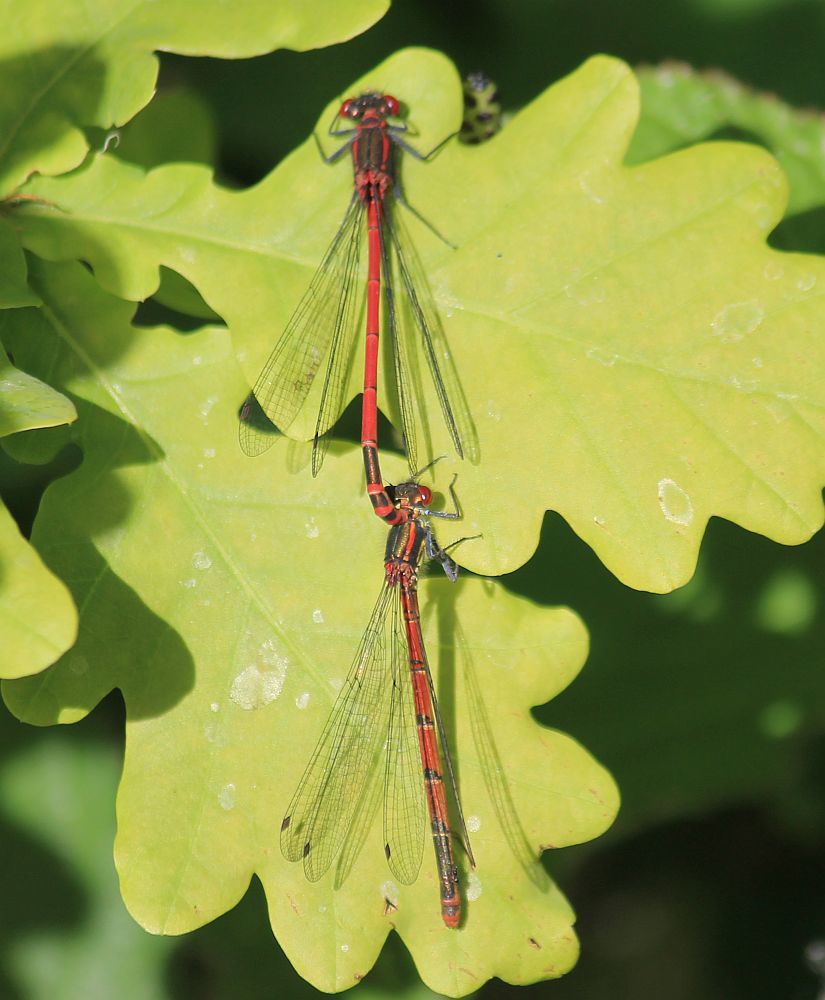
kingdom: Animalia
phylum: Arthropoda
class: Insecta
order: Odonata
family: Coenagrionidae
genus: Pyrrhosoma
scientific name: Pyrrhosoma nymphula
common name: Large red damsel
